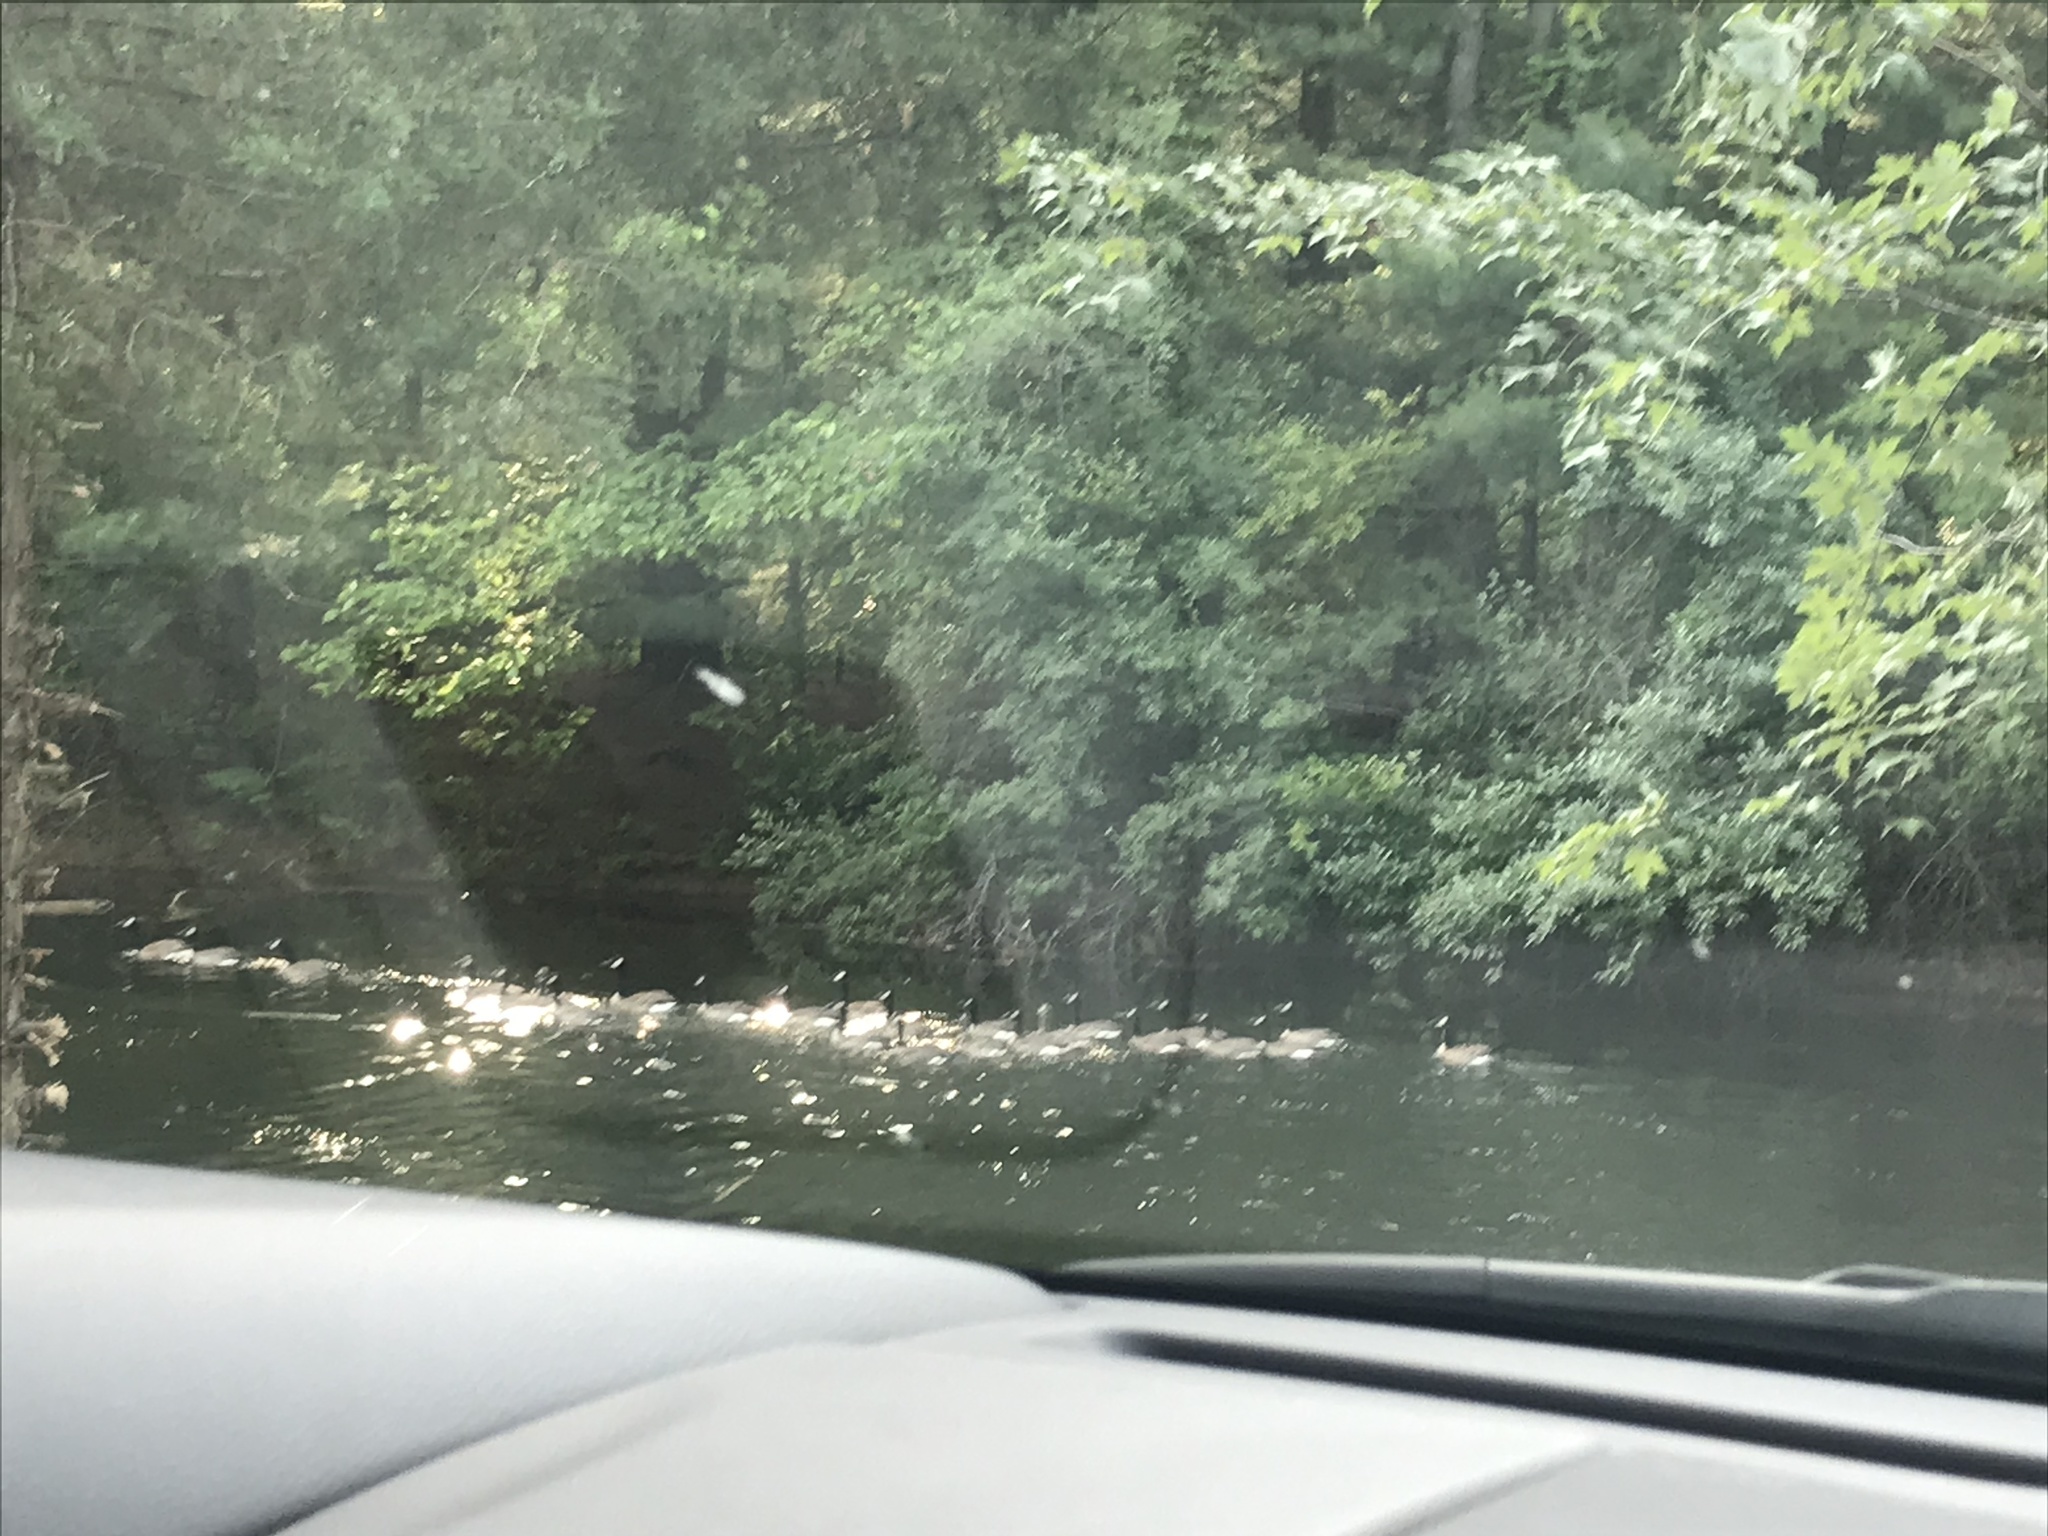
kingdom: Animalia
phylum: Chordata
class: Aves
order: Anseriformes
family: Anatidae
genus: Branta
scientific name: Branta canadensis
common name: Canada goose
